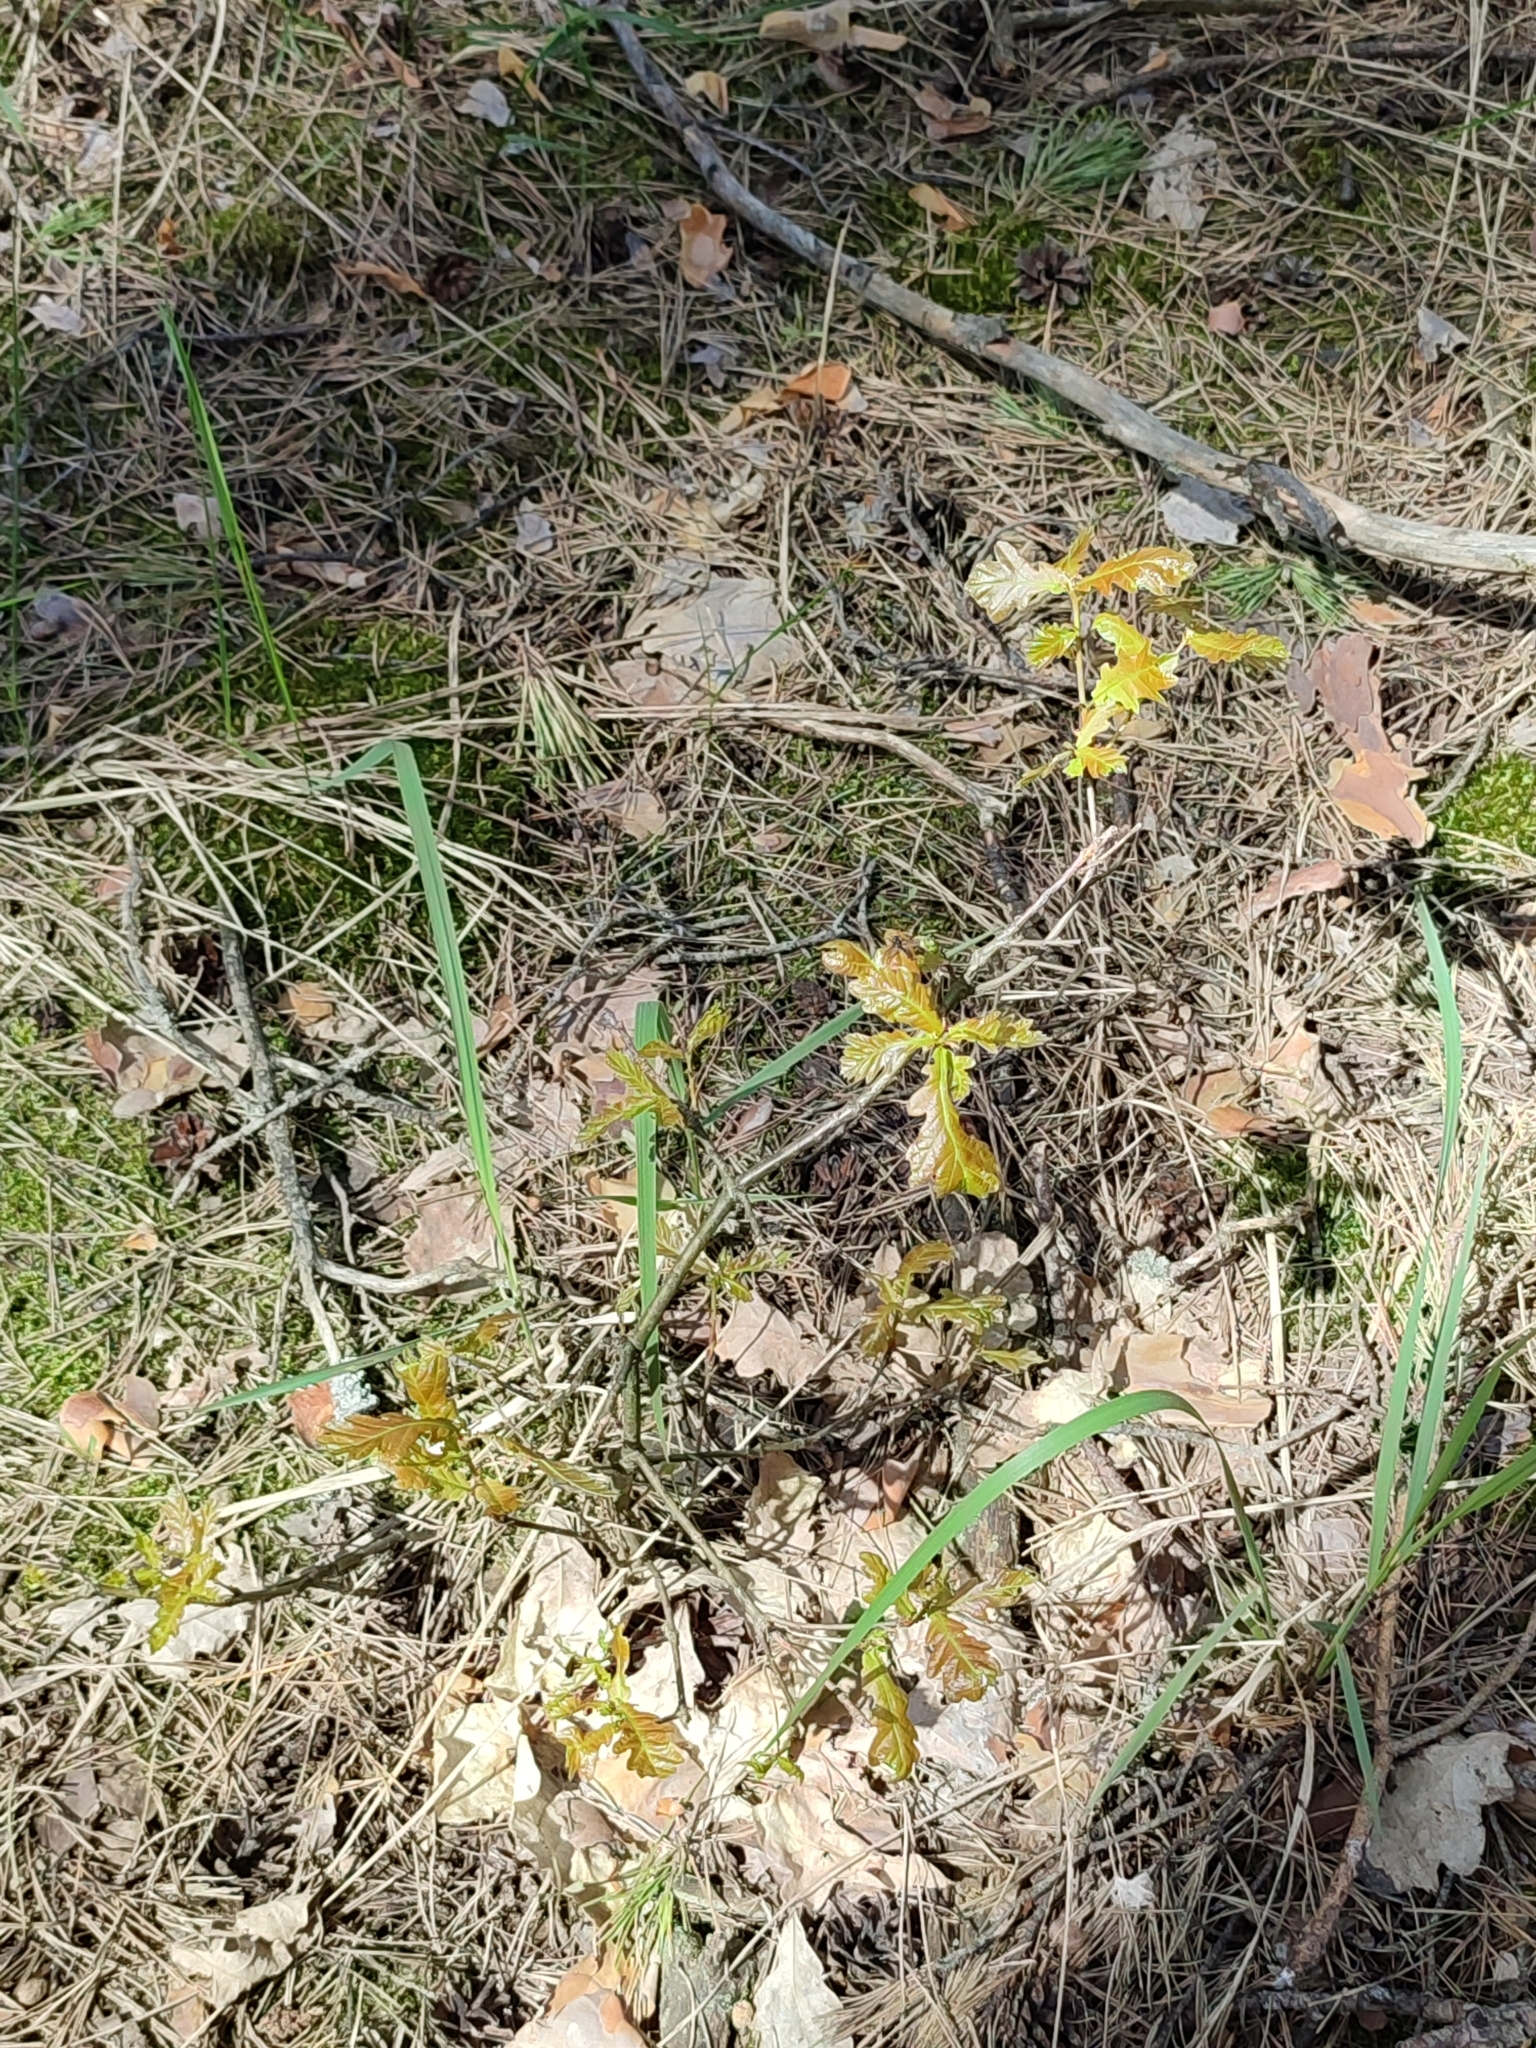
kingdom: Plantae
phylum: Tracheophyta
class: Magnoliopsida
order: Fagales
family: Fagaceae
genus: Quercus
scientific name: Quercus robur
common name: Pedunculate oak
